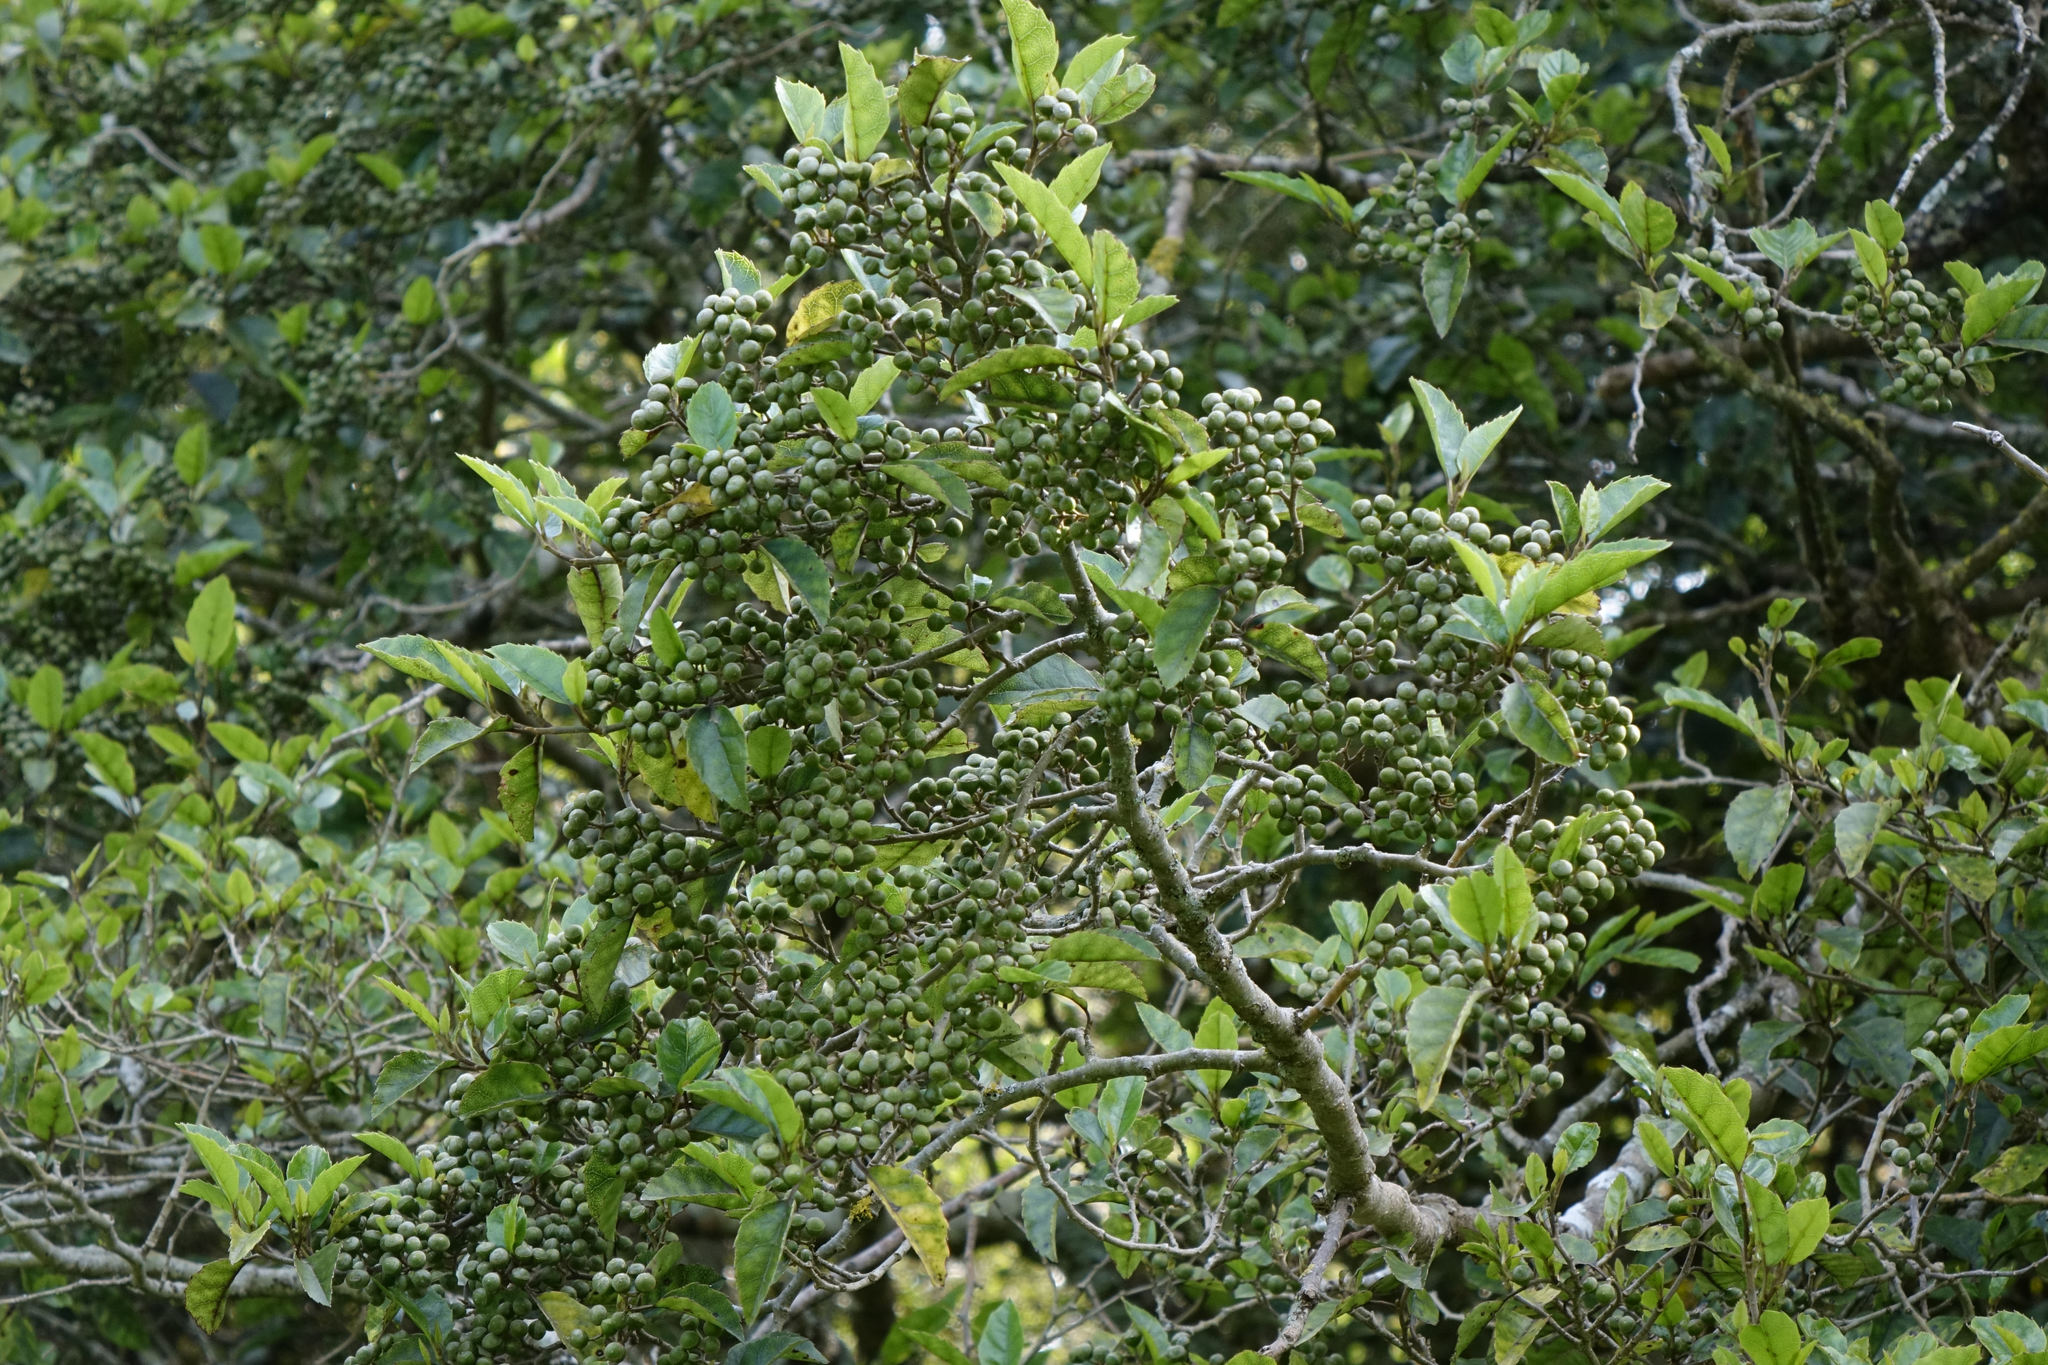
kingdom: Plantae
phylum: Tracheophyta
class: Magnoliopsida
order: Asterales
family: Rousseaceae
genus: Carpodetus
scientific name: Carpodetus serratus
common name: White mapau
